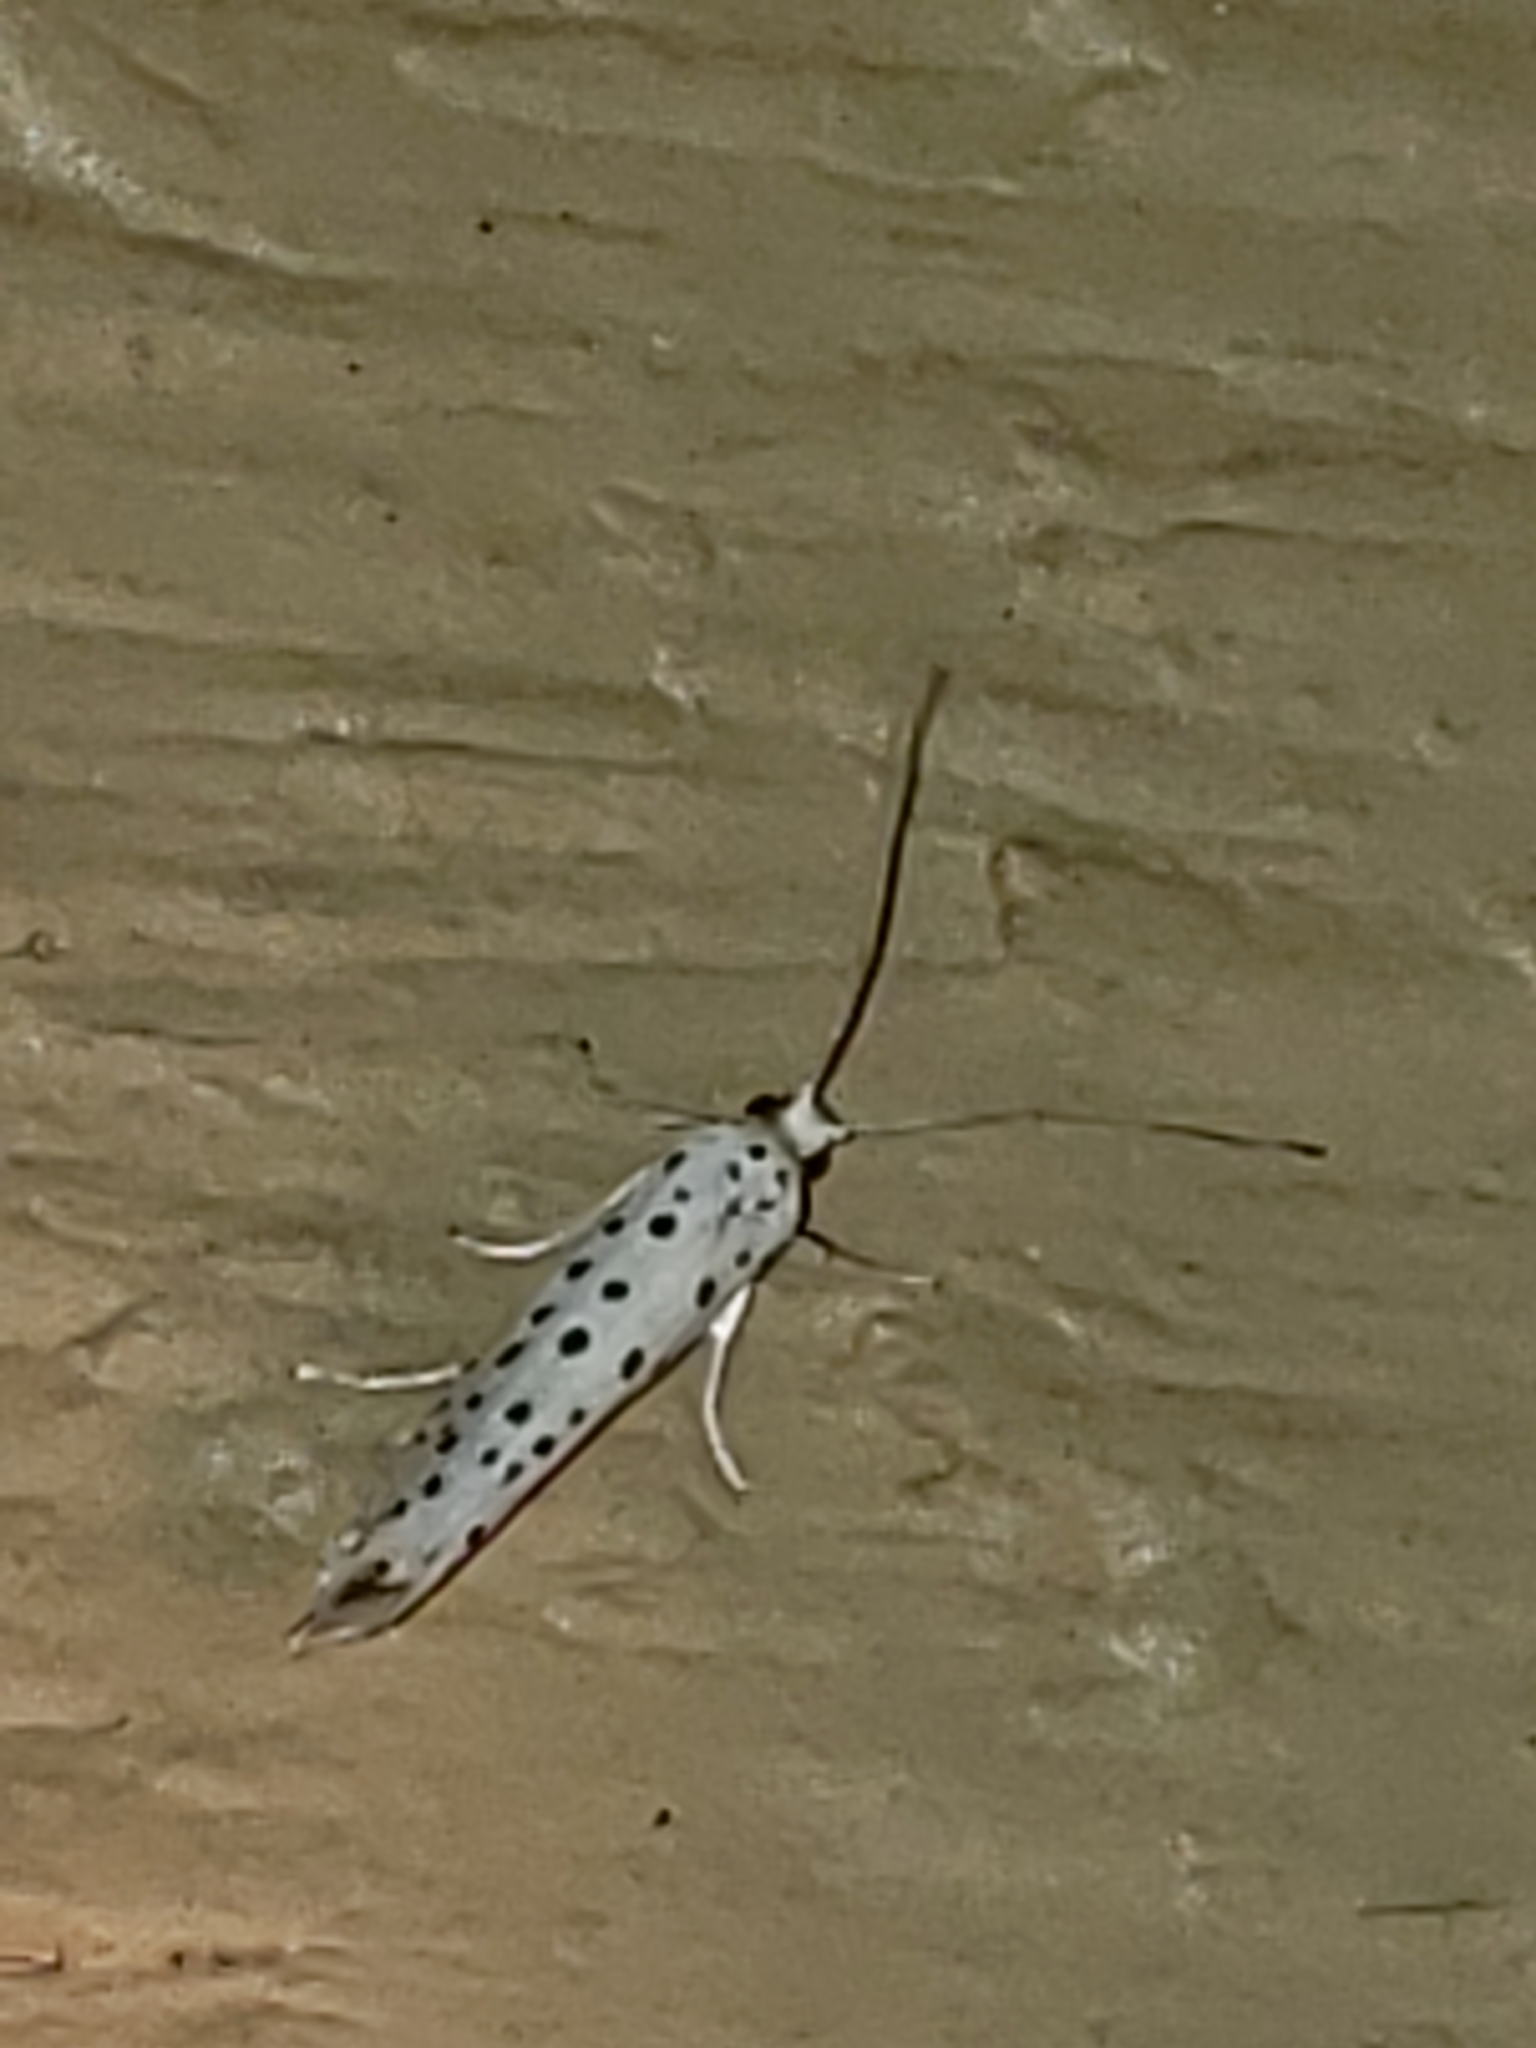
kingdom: Animalia
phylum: Arthropoda
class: Insecta
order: Lepidoptera
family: Yponomeutidae
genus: Yponomeuta
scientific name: Yponomeuta multipunctella
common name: American ermine moth
